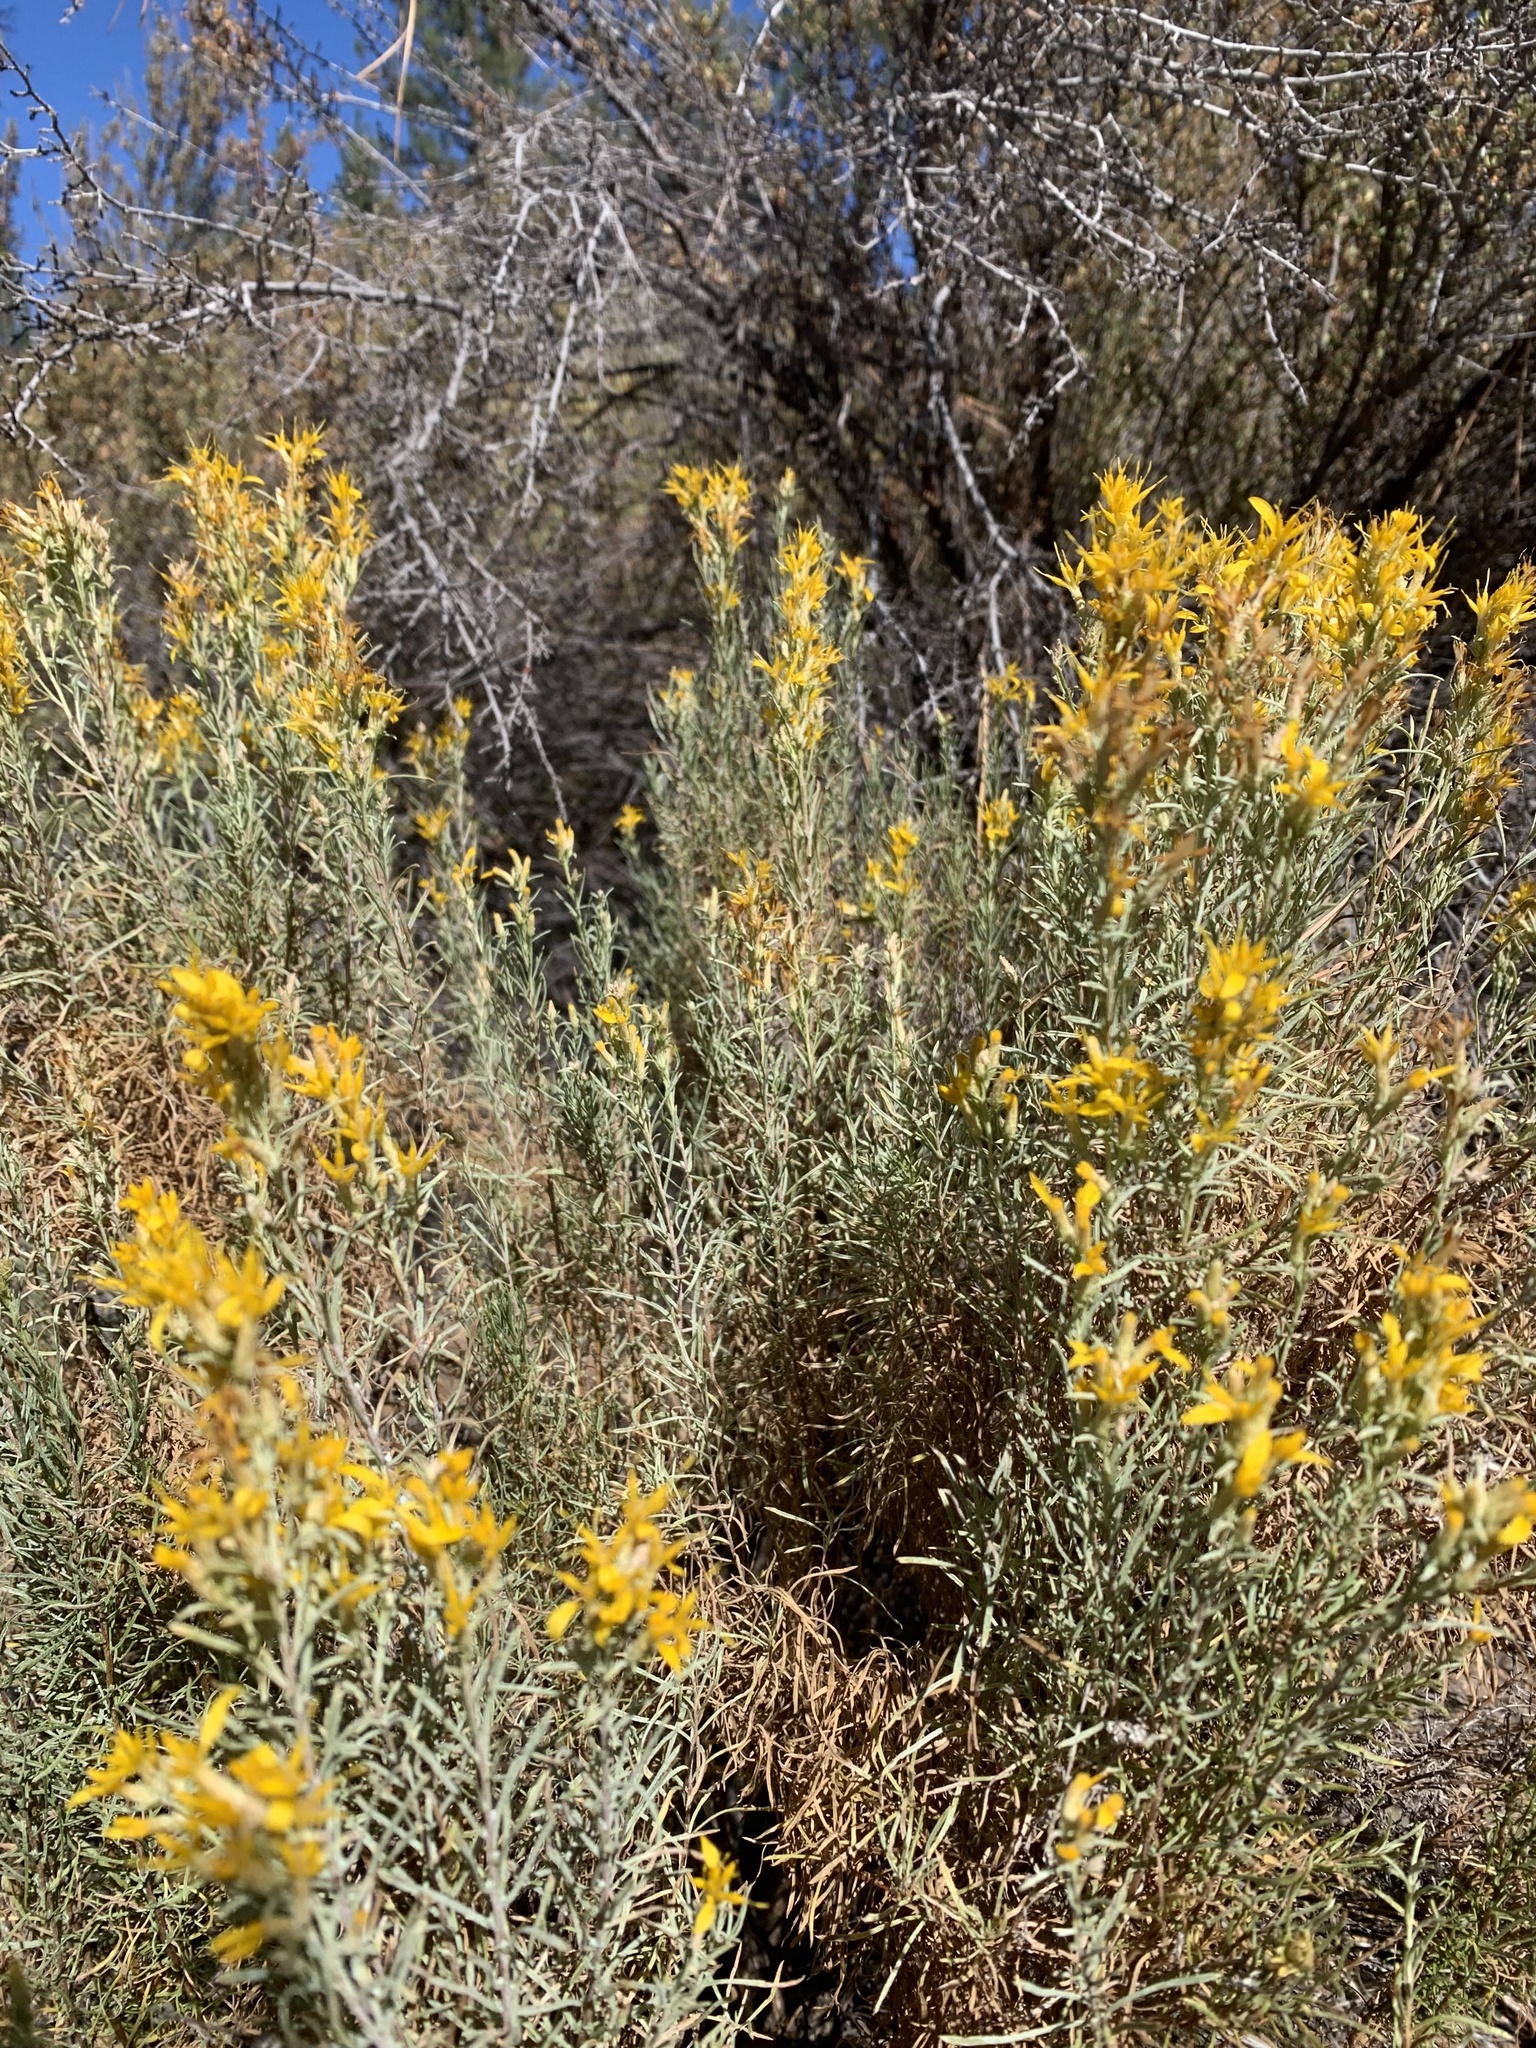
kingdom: Plantae
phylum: Tracheophyta
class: Magnoliopsida
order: Asterales
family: Asteraceae
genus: Ericameria
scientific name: Ericameria nauseosa
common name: Rubber rabbitbrush
